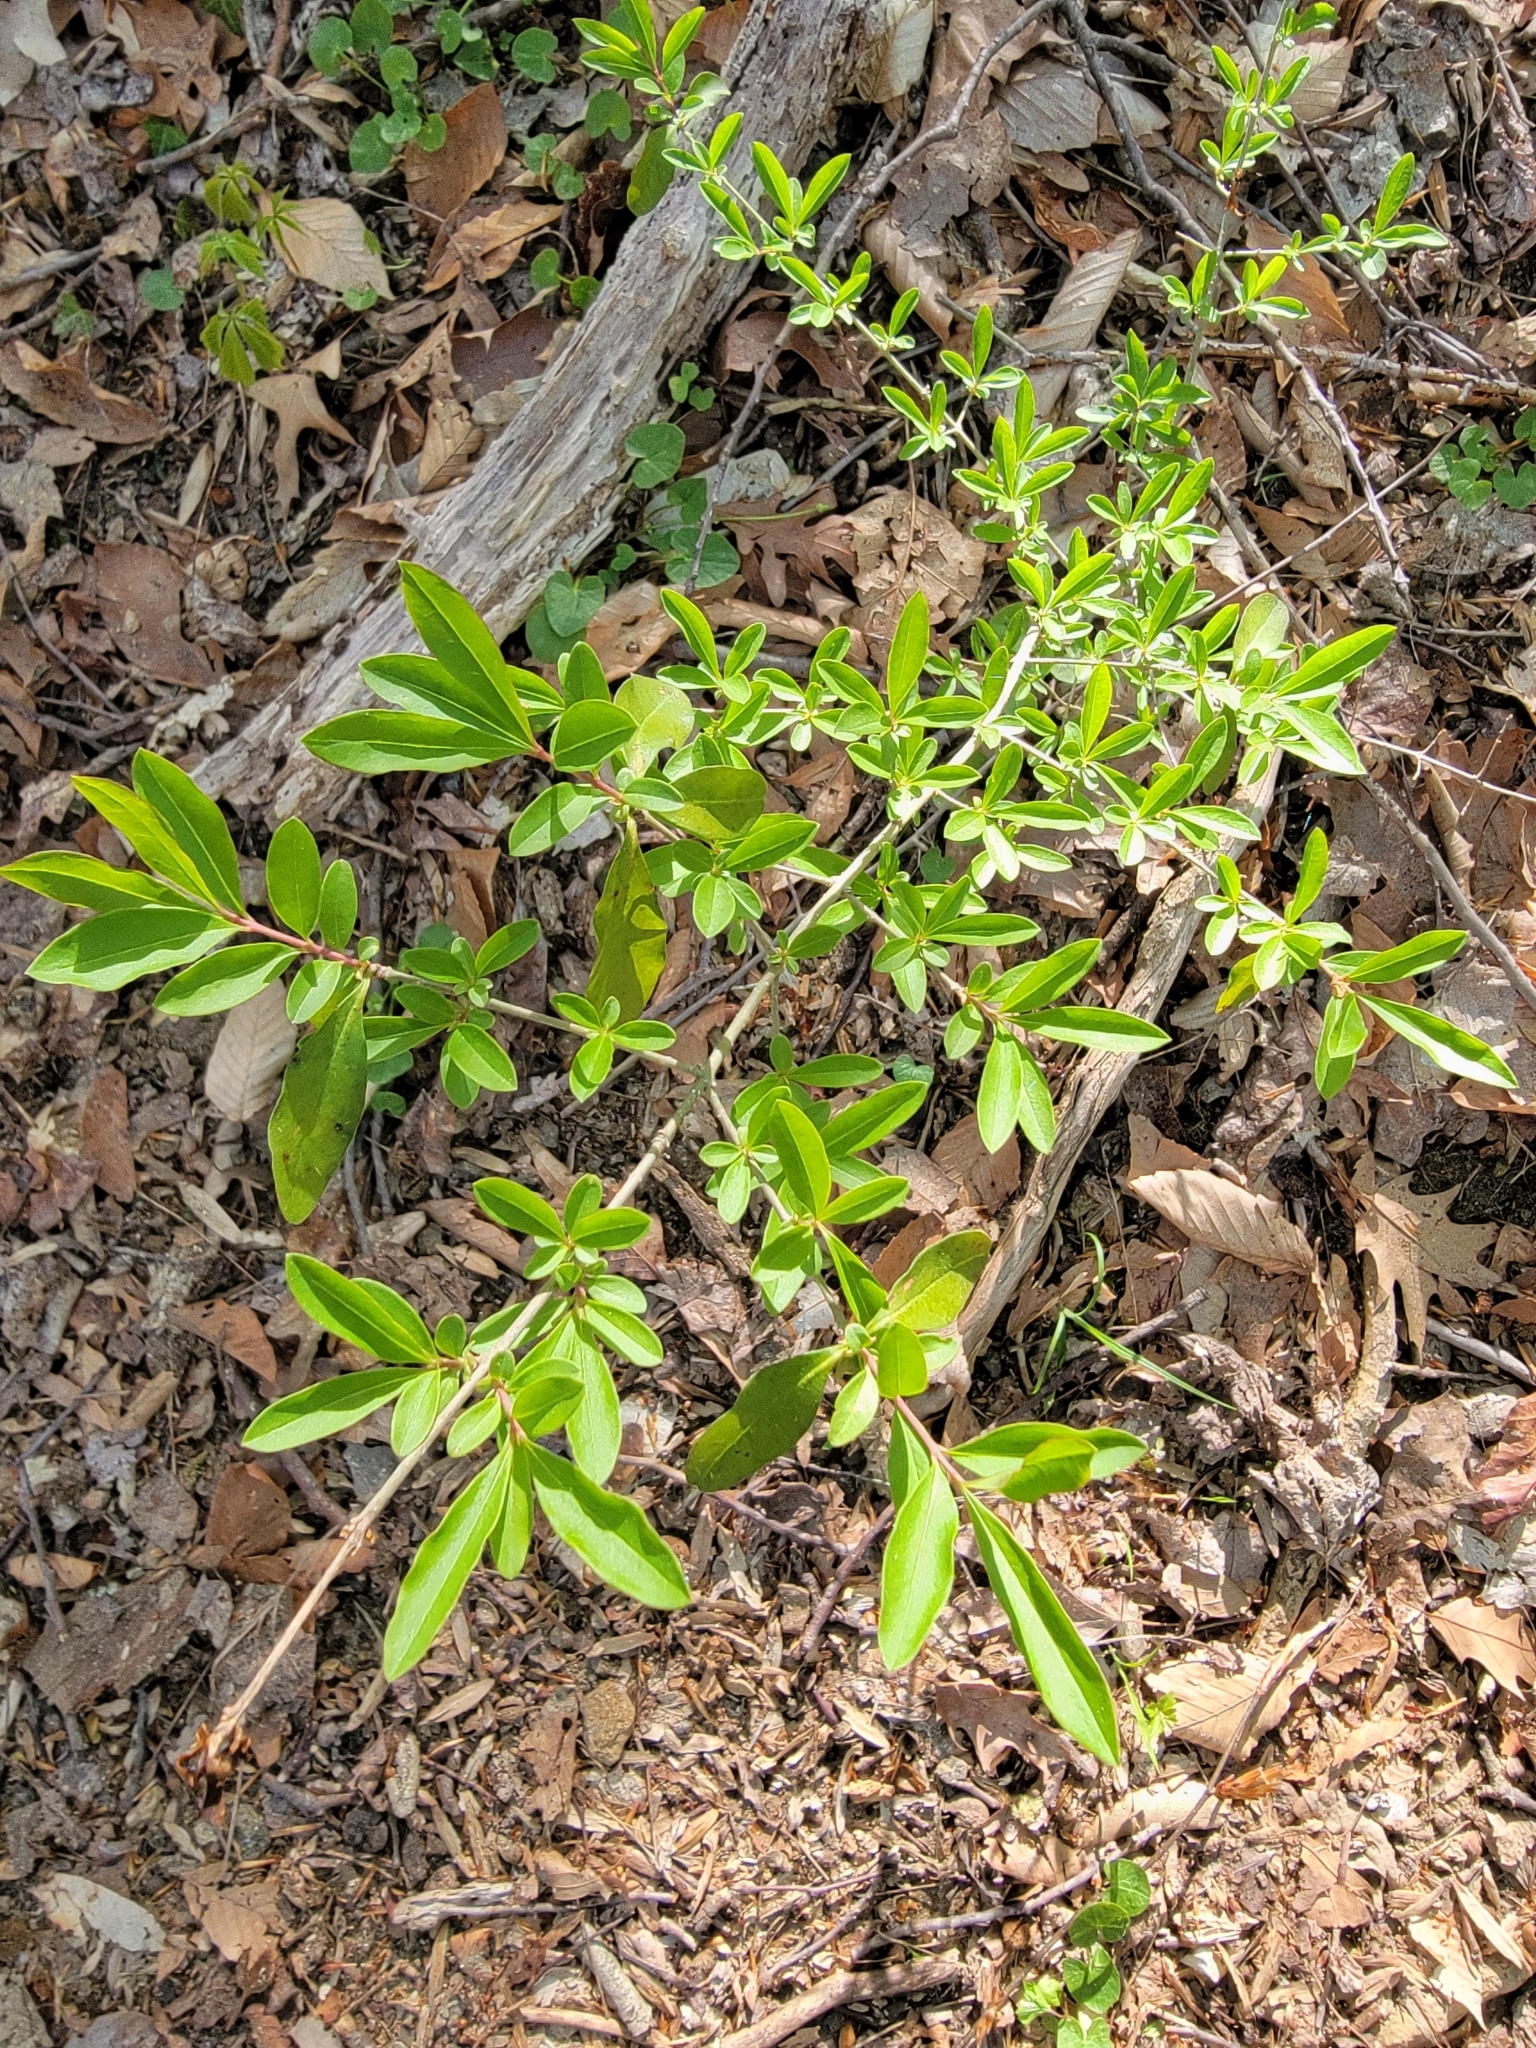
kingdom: Plantae
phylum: Tracheophyta
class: Magnoliopsida
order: Lamiales
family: Oleaceae
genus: Ligustrum
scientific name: Ligustrum obtusifolium
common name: Border privet
